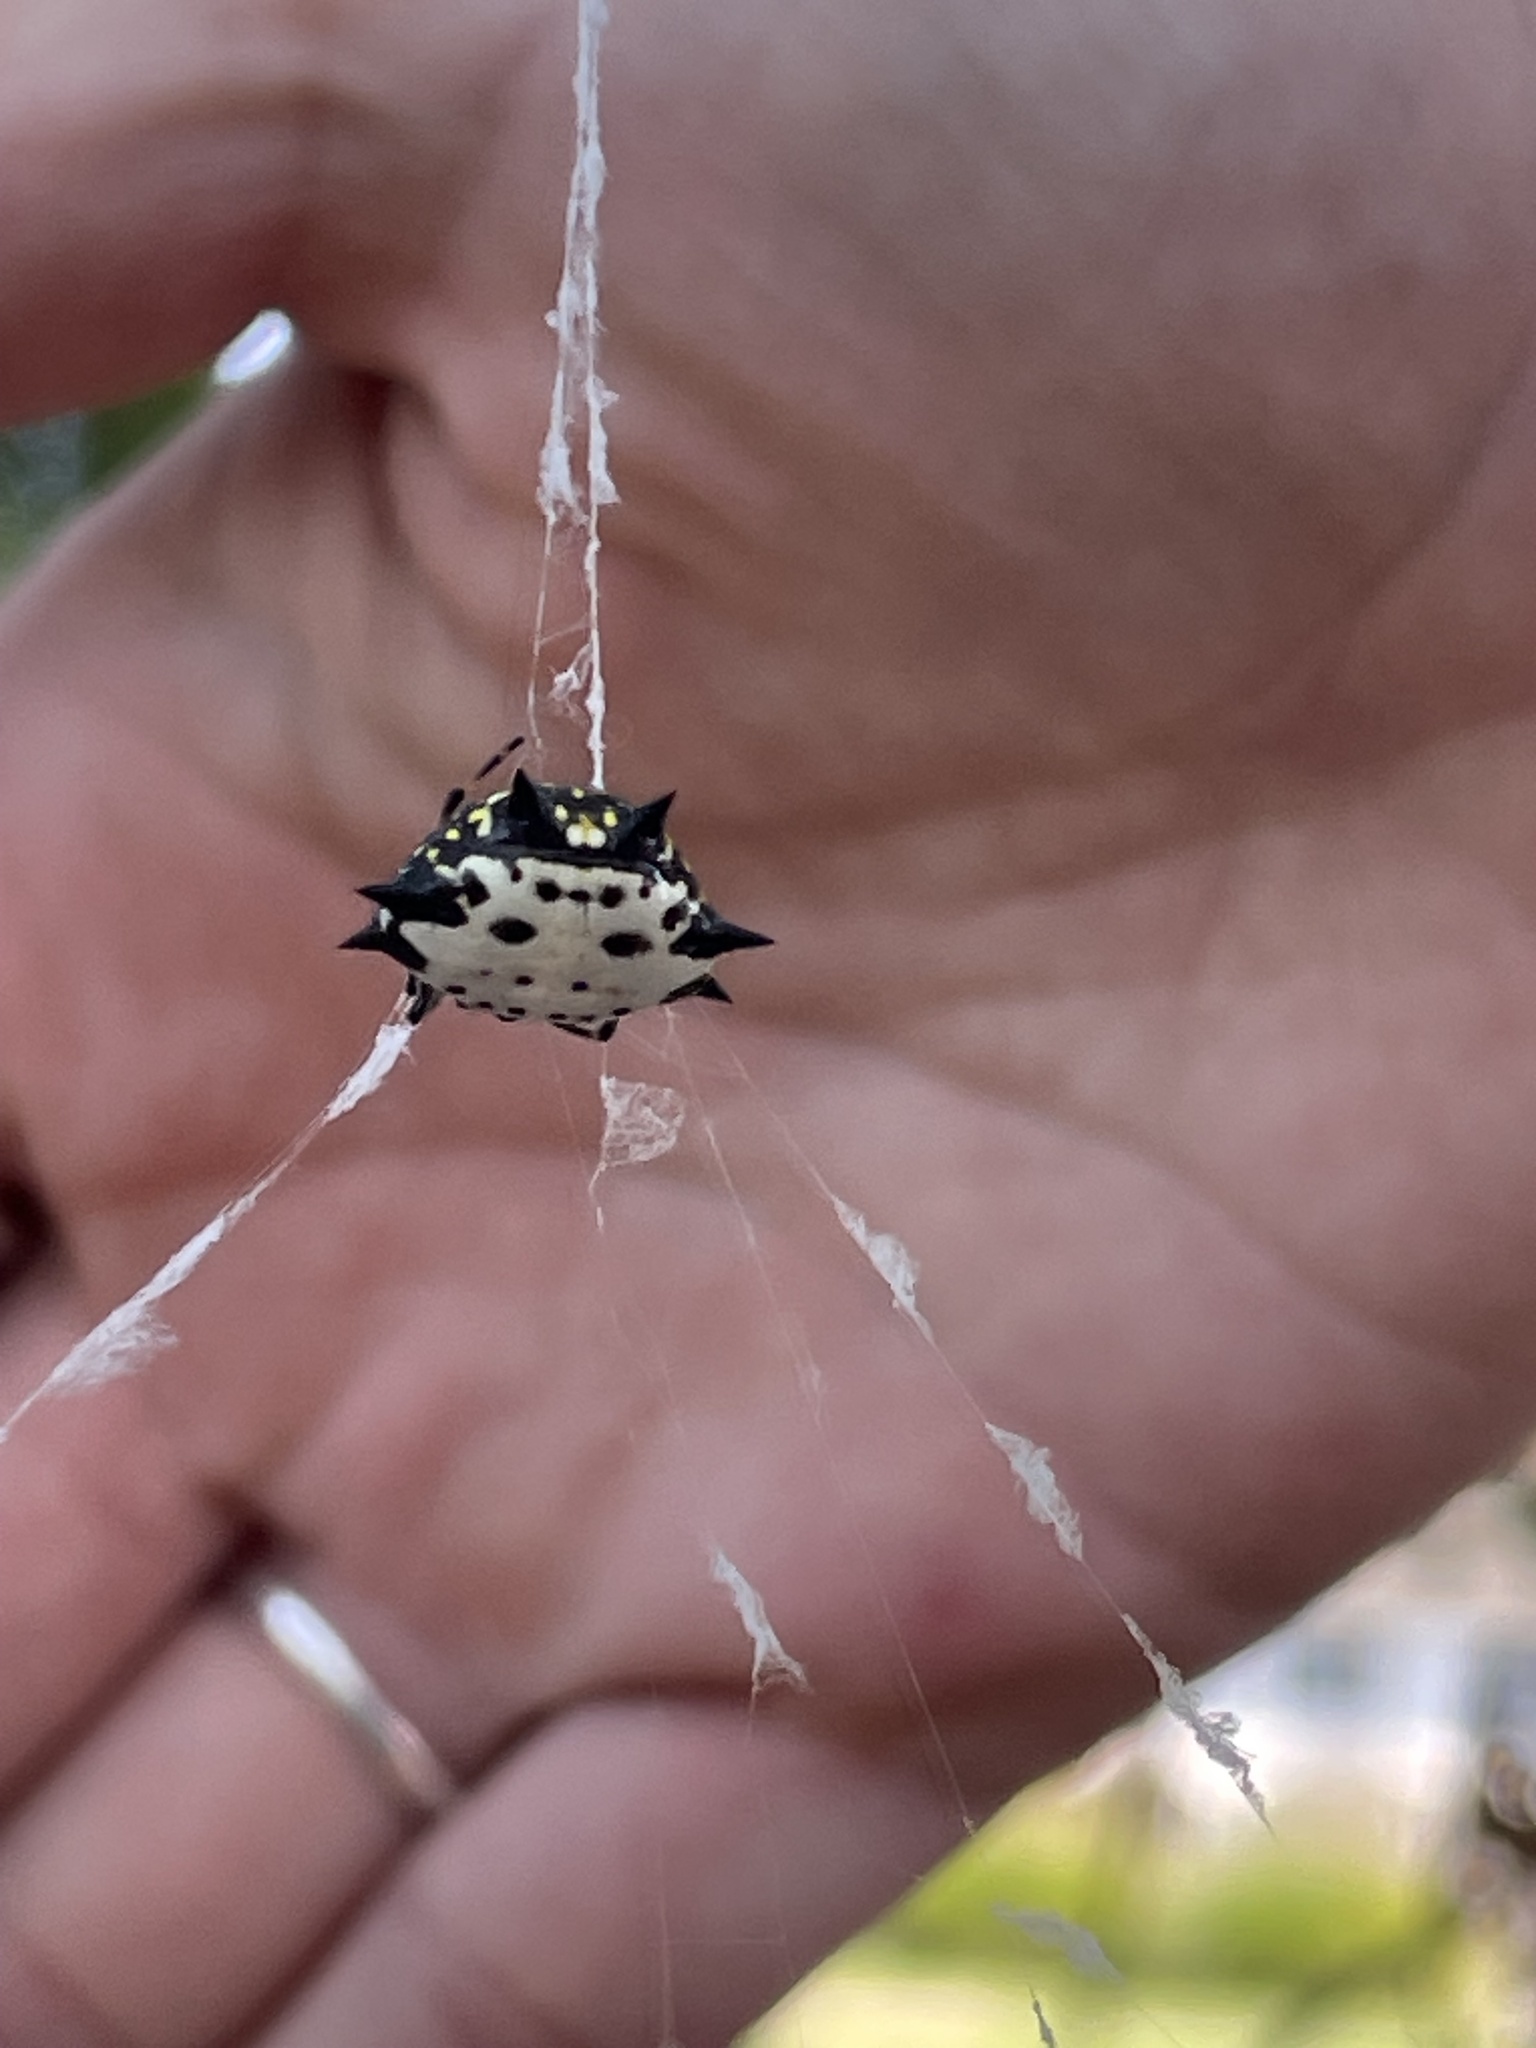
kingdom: Animalia
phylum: Arthropoda
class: Arachnida
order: Araneae
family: Araneidae
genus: Gasteracantha
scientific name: Gasteracantha cancriformis
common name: Orb weavers
